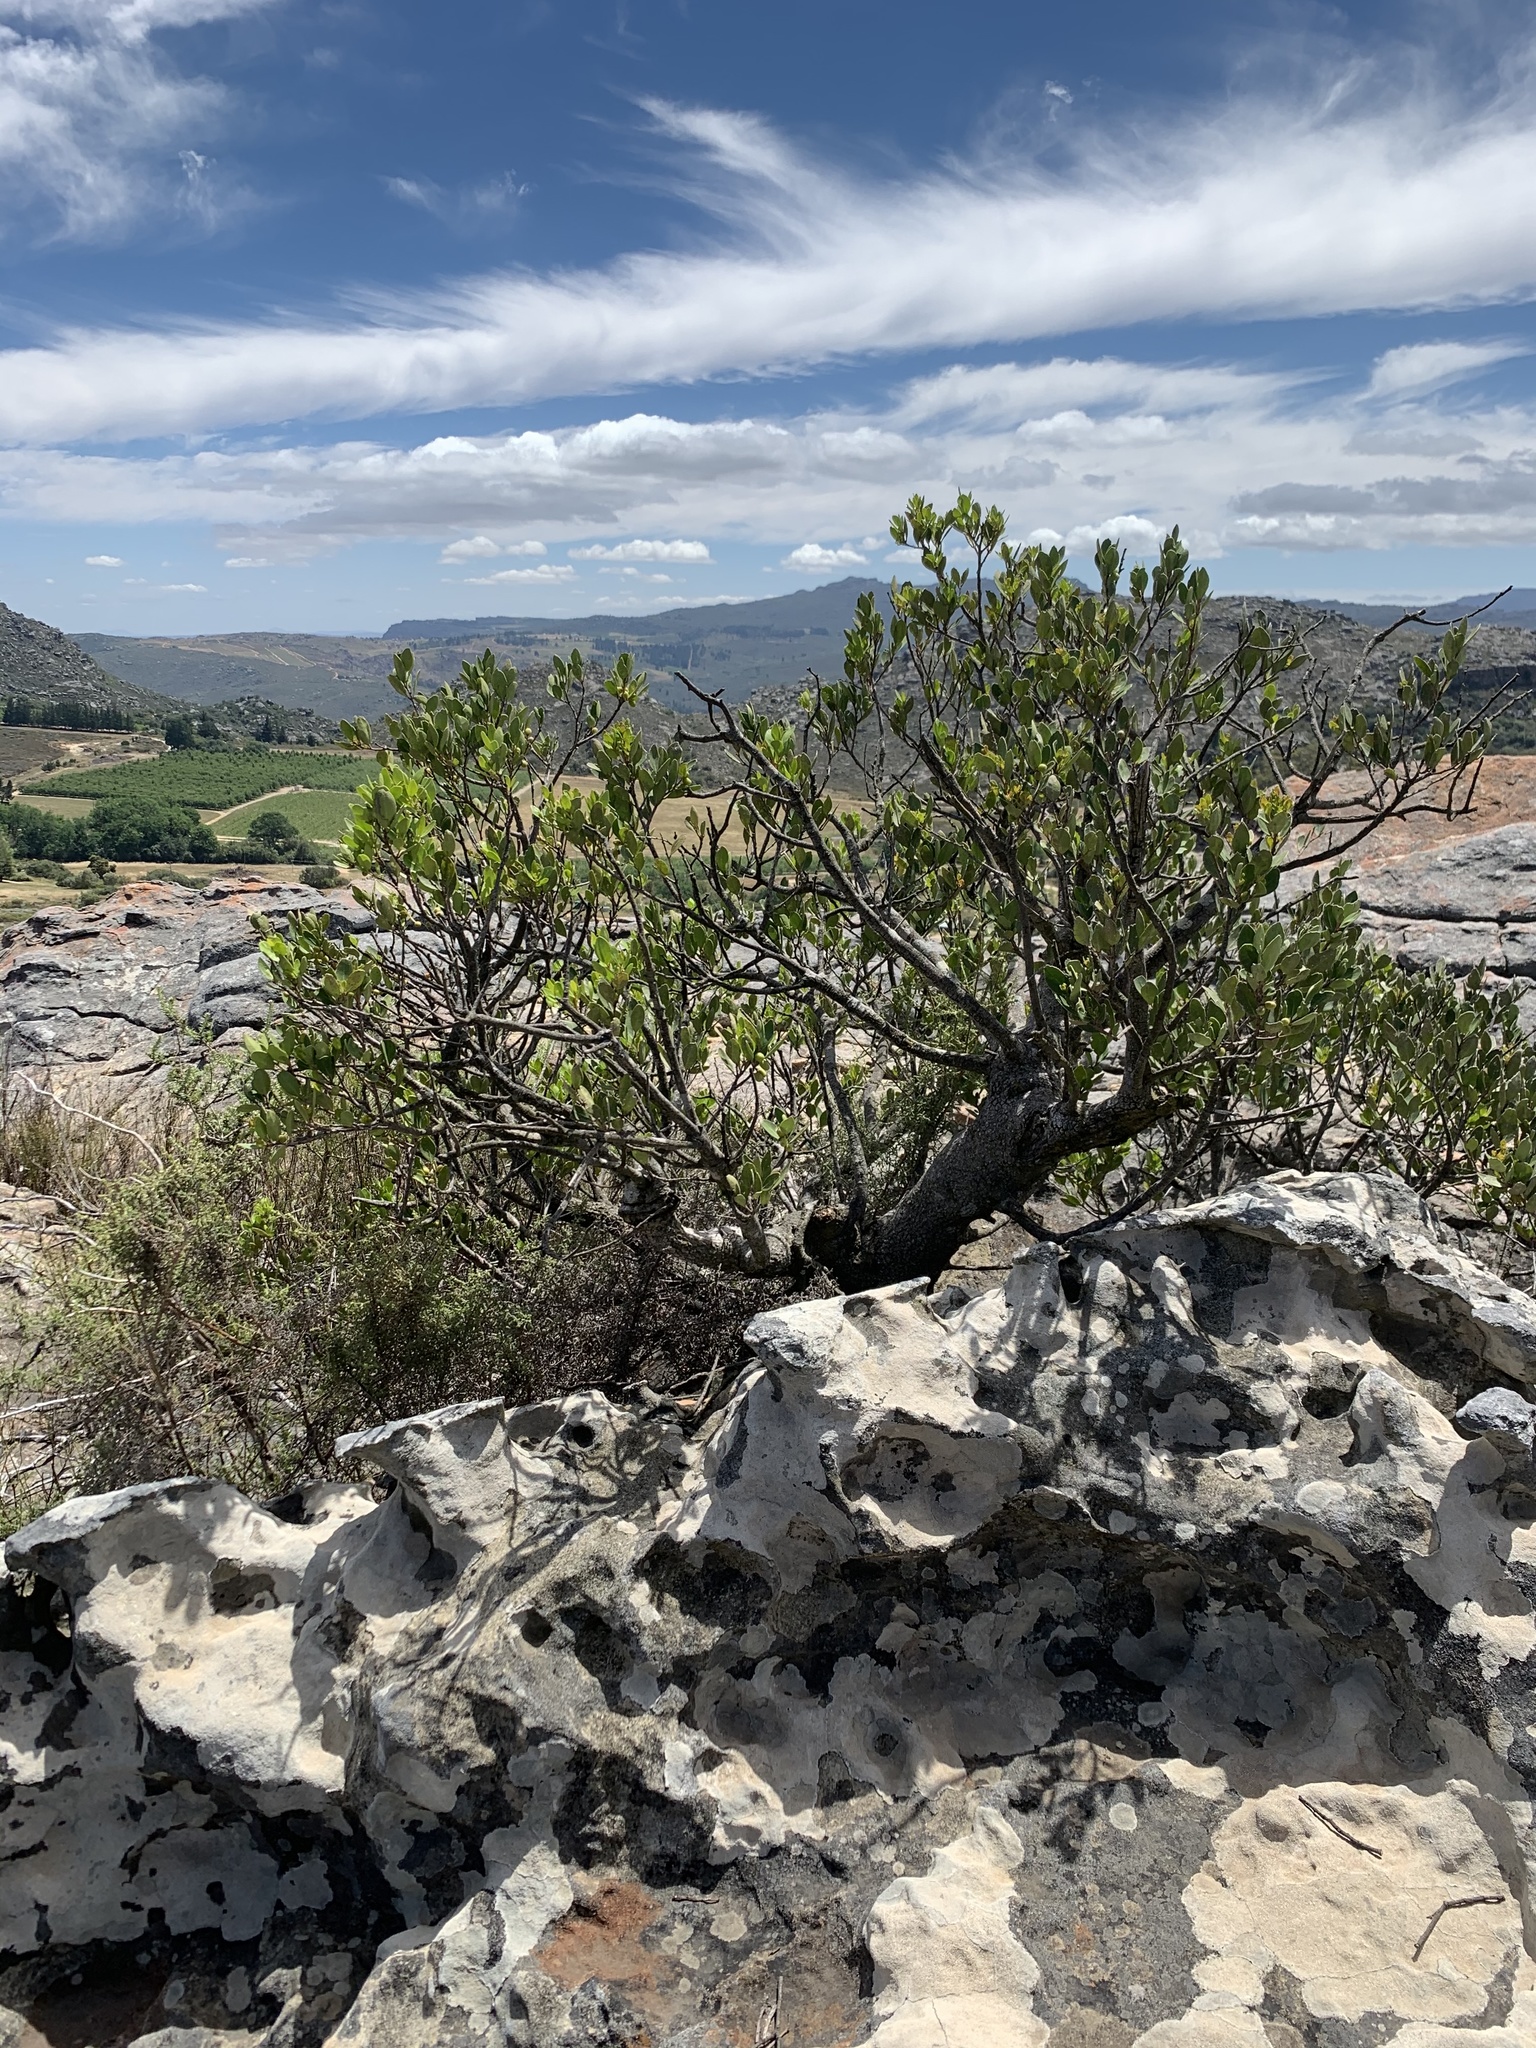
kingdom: Plantae
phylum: Tracheophyta
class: Magnoliopsida
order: Celastrales
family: Celastraceae
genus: Gymnosporia
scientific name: Gymnosporia laurina
